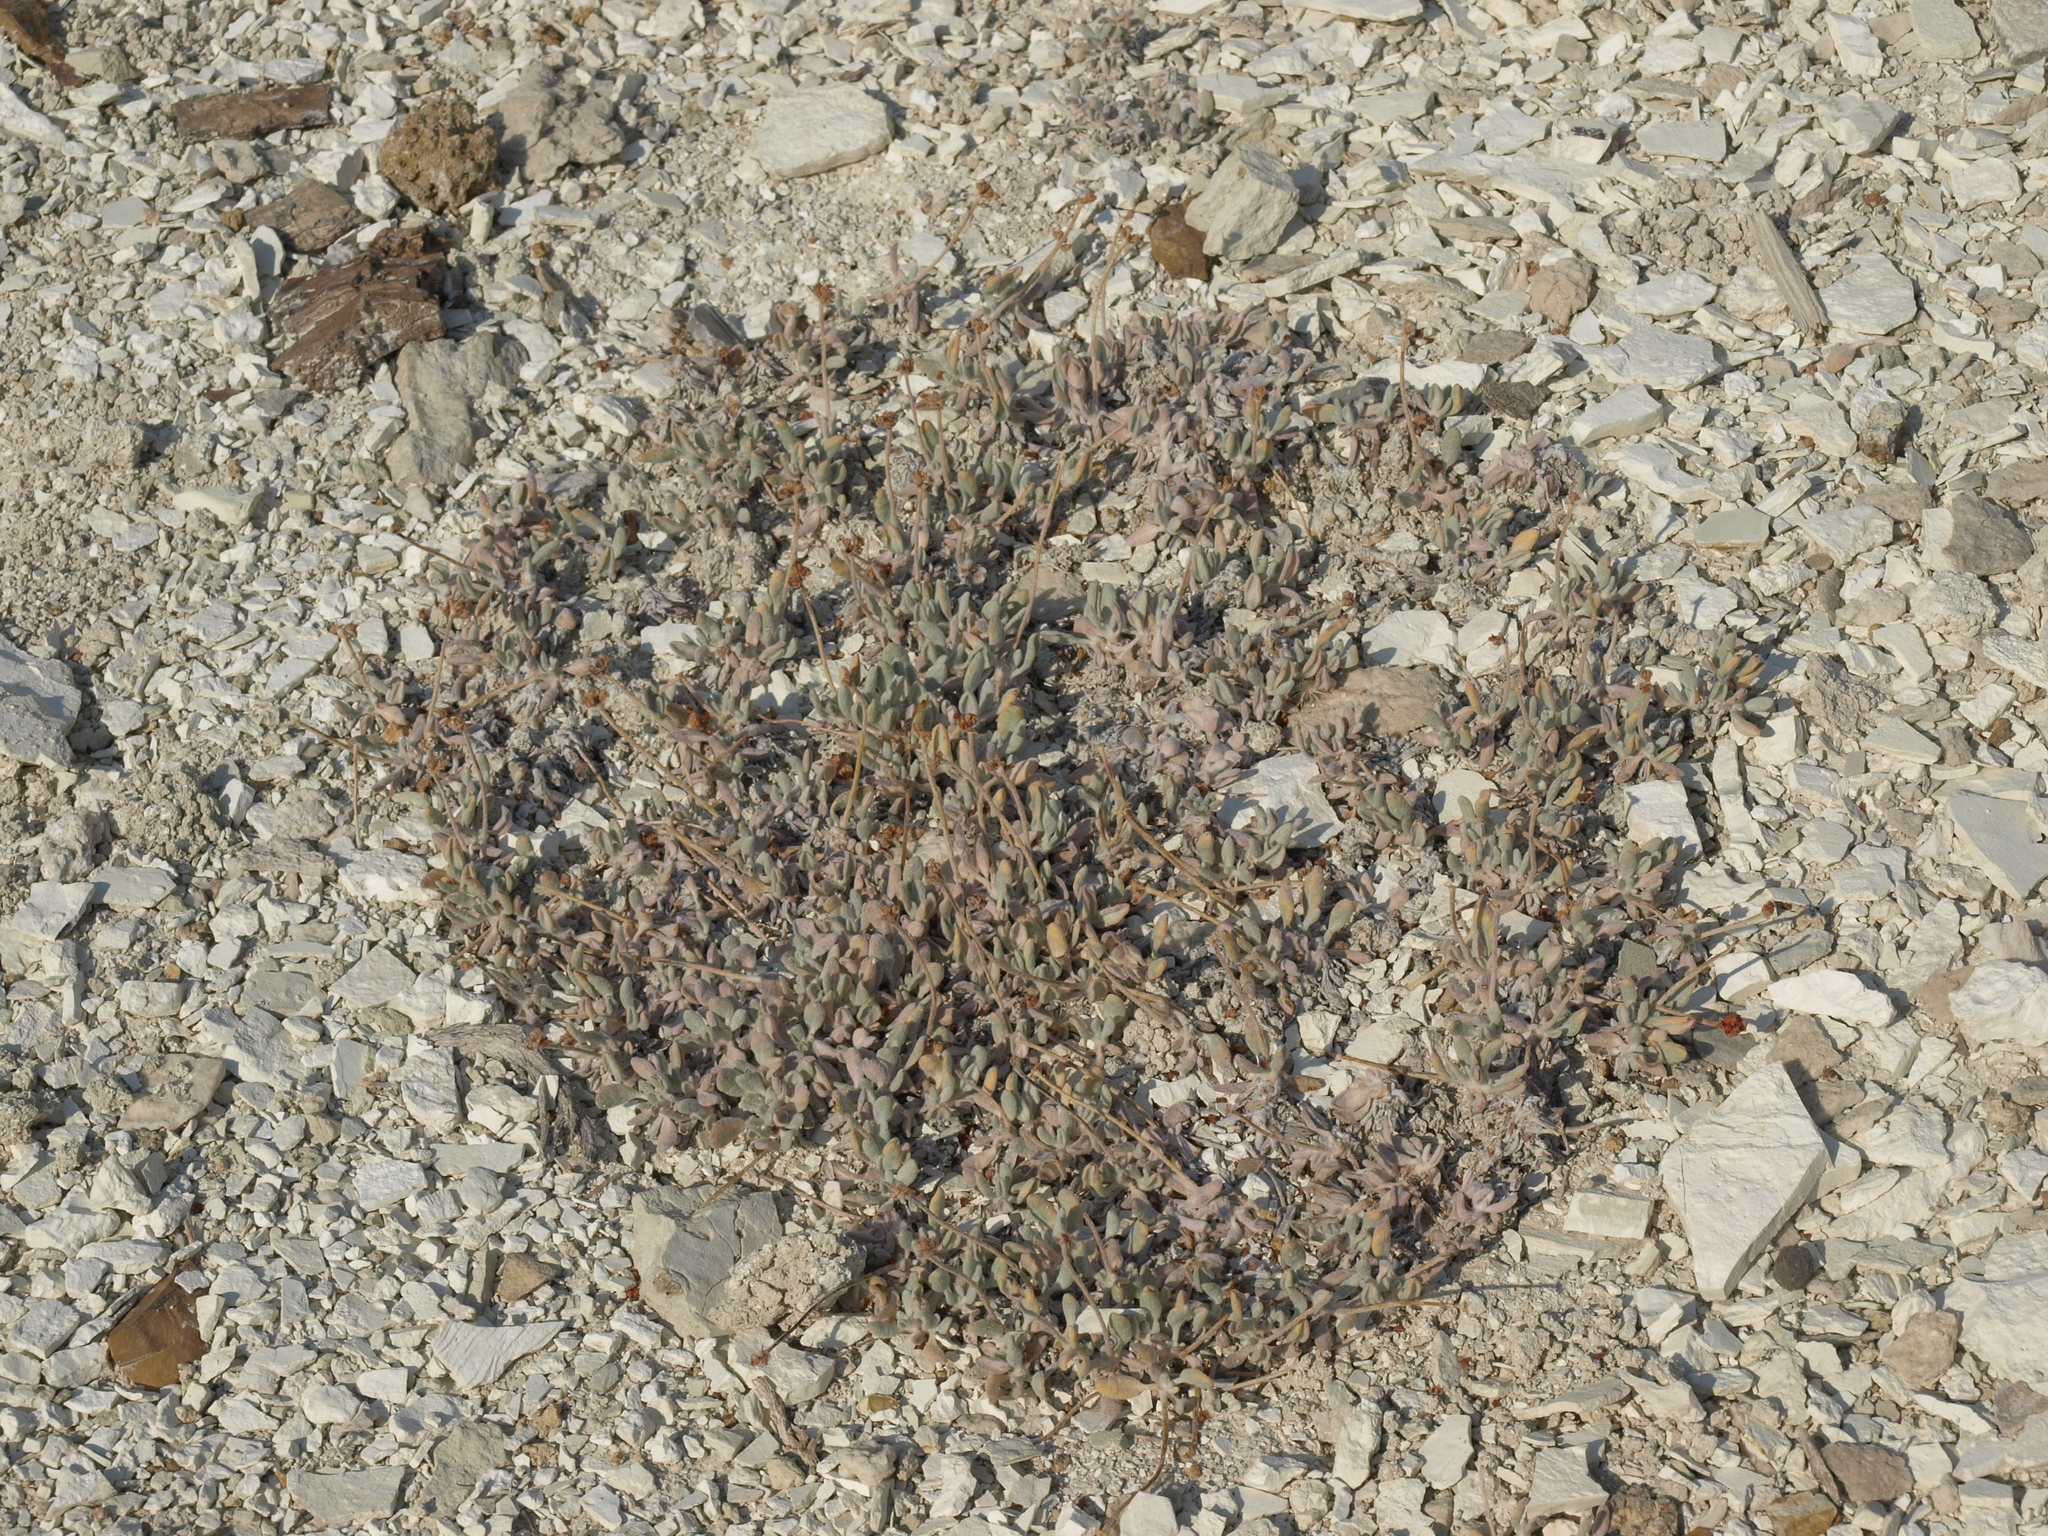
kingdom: Plantae
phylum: Tracheophyta
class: Magnoliopsida
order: Caryophyllales
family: Polygonaceae
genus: Eriogonum
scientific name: Eriogonum tiehmii
